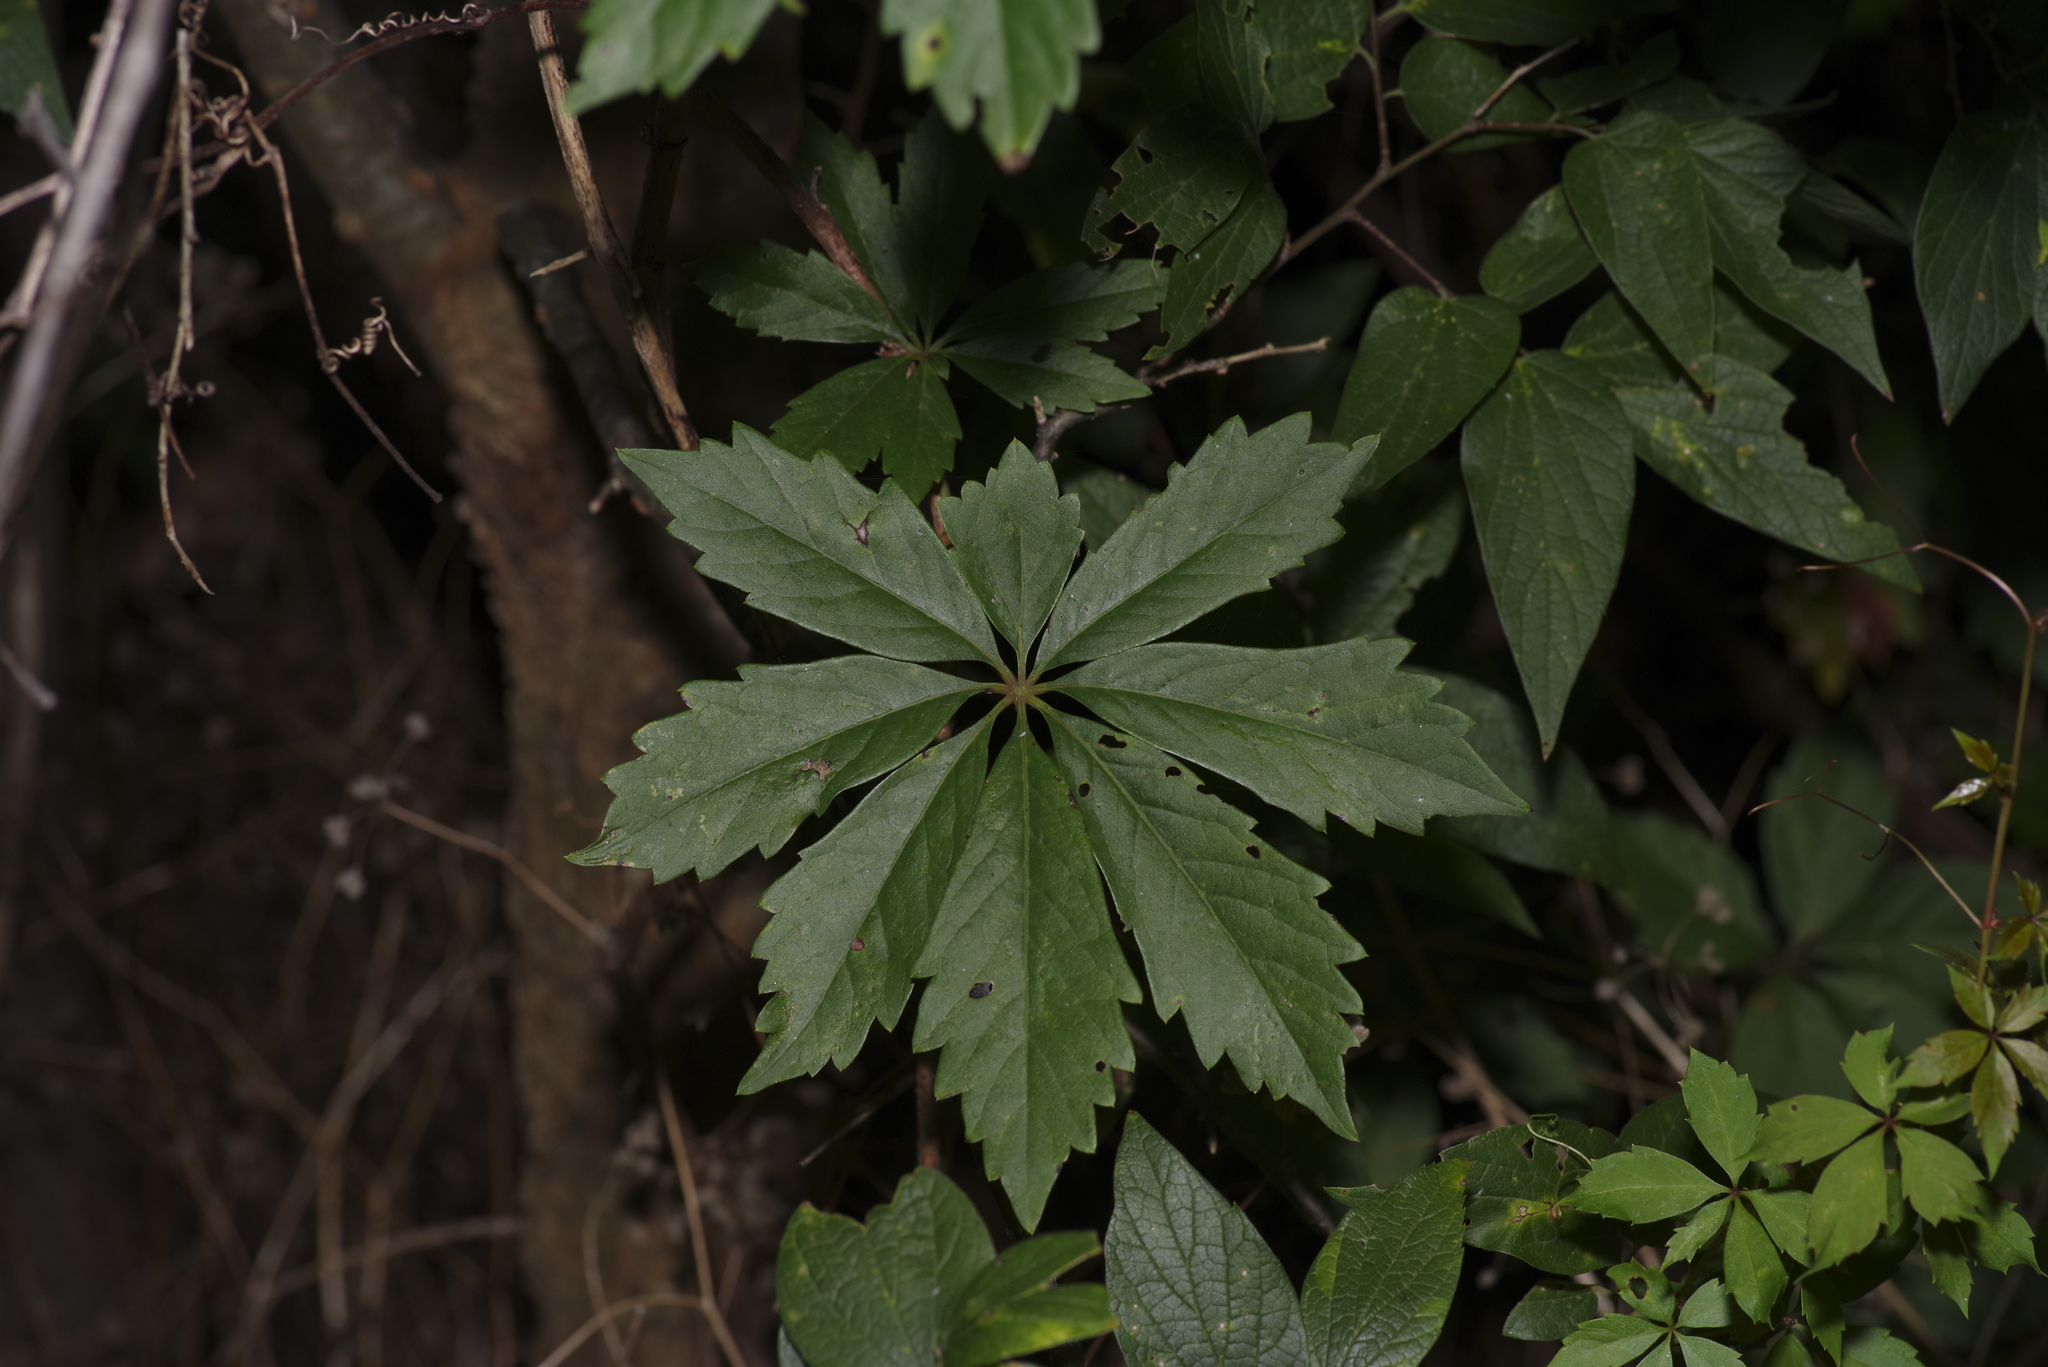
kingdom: Plantae
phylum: Tracheophyta
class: Magnoliopsida
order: Vitales
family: Vitaceae
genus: Parthenocissus
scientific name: Parthenocissus heptaphylla
